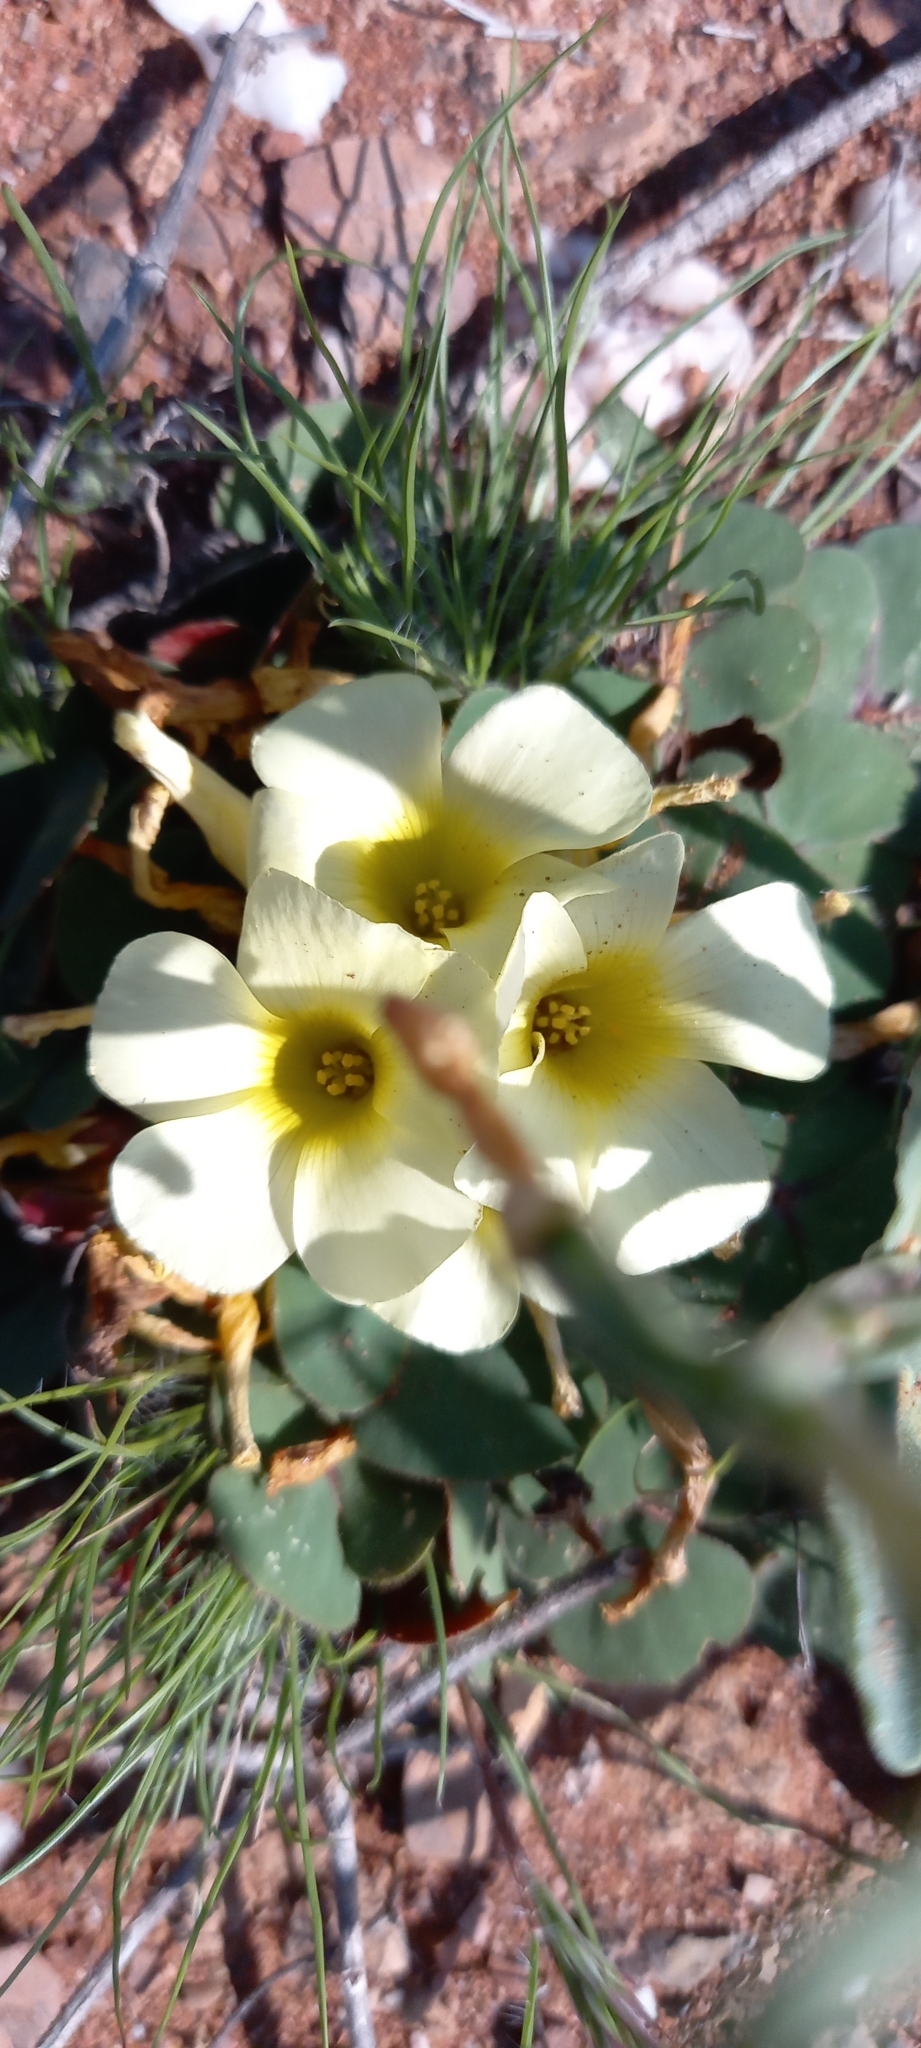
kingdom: Plantae
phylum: Tracheophyta
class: Magnoliopsida
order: Oxalidales
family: Oxalidaceae
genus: Oxalis
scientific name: Oxalis purpurea
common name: Purple woodsorrel
